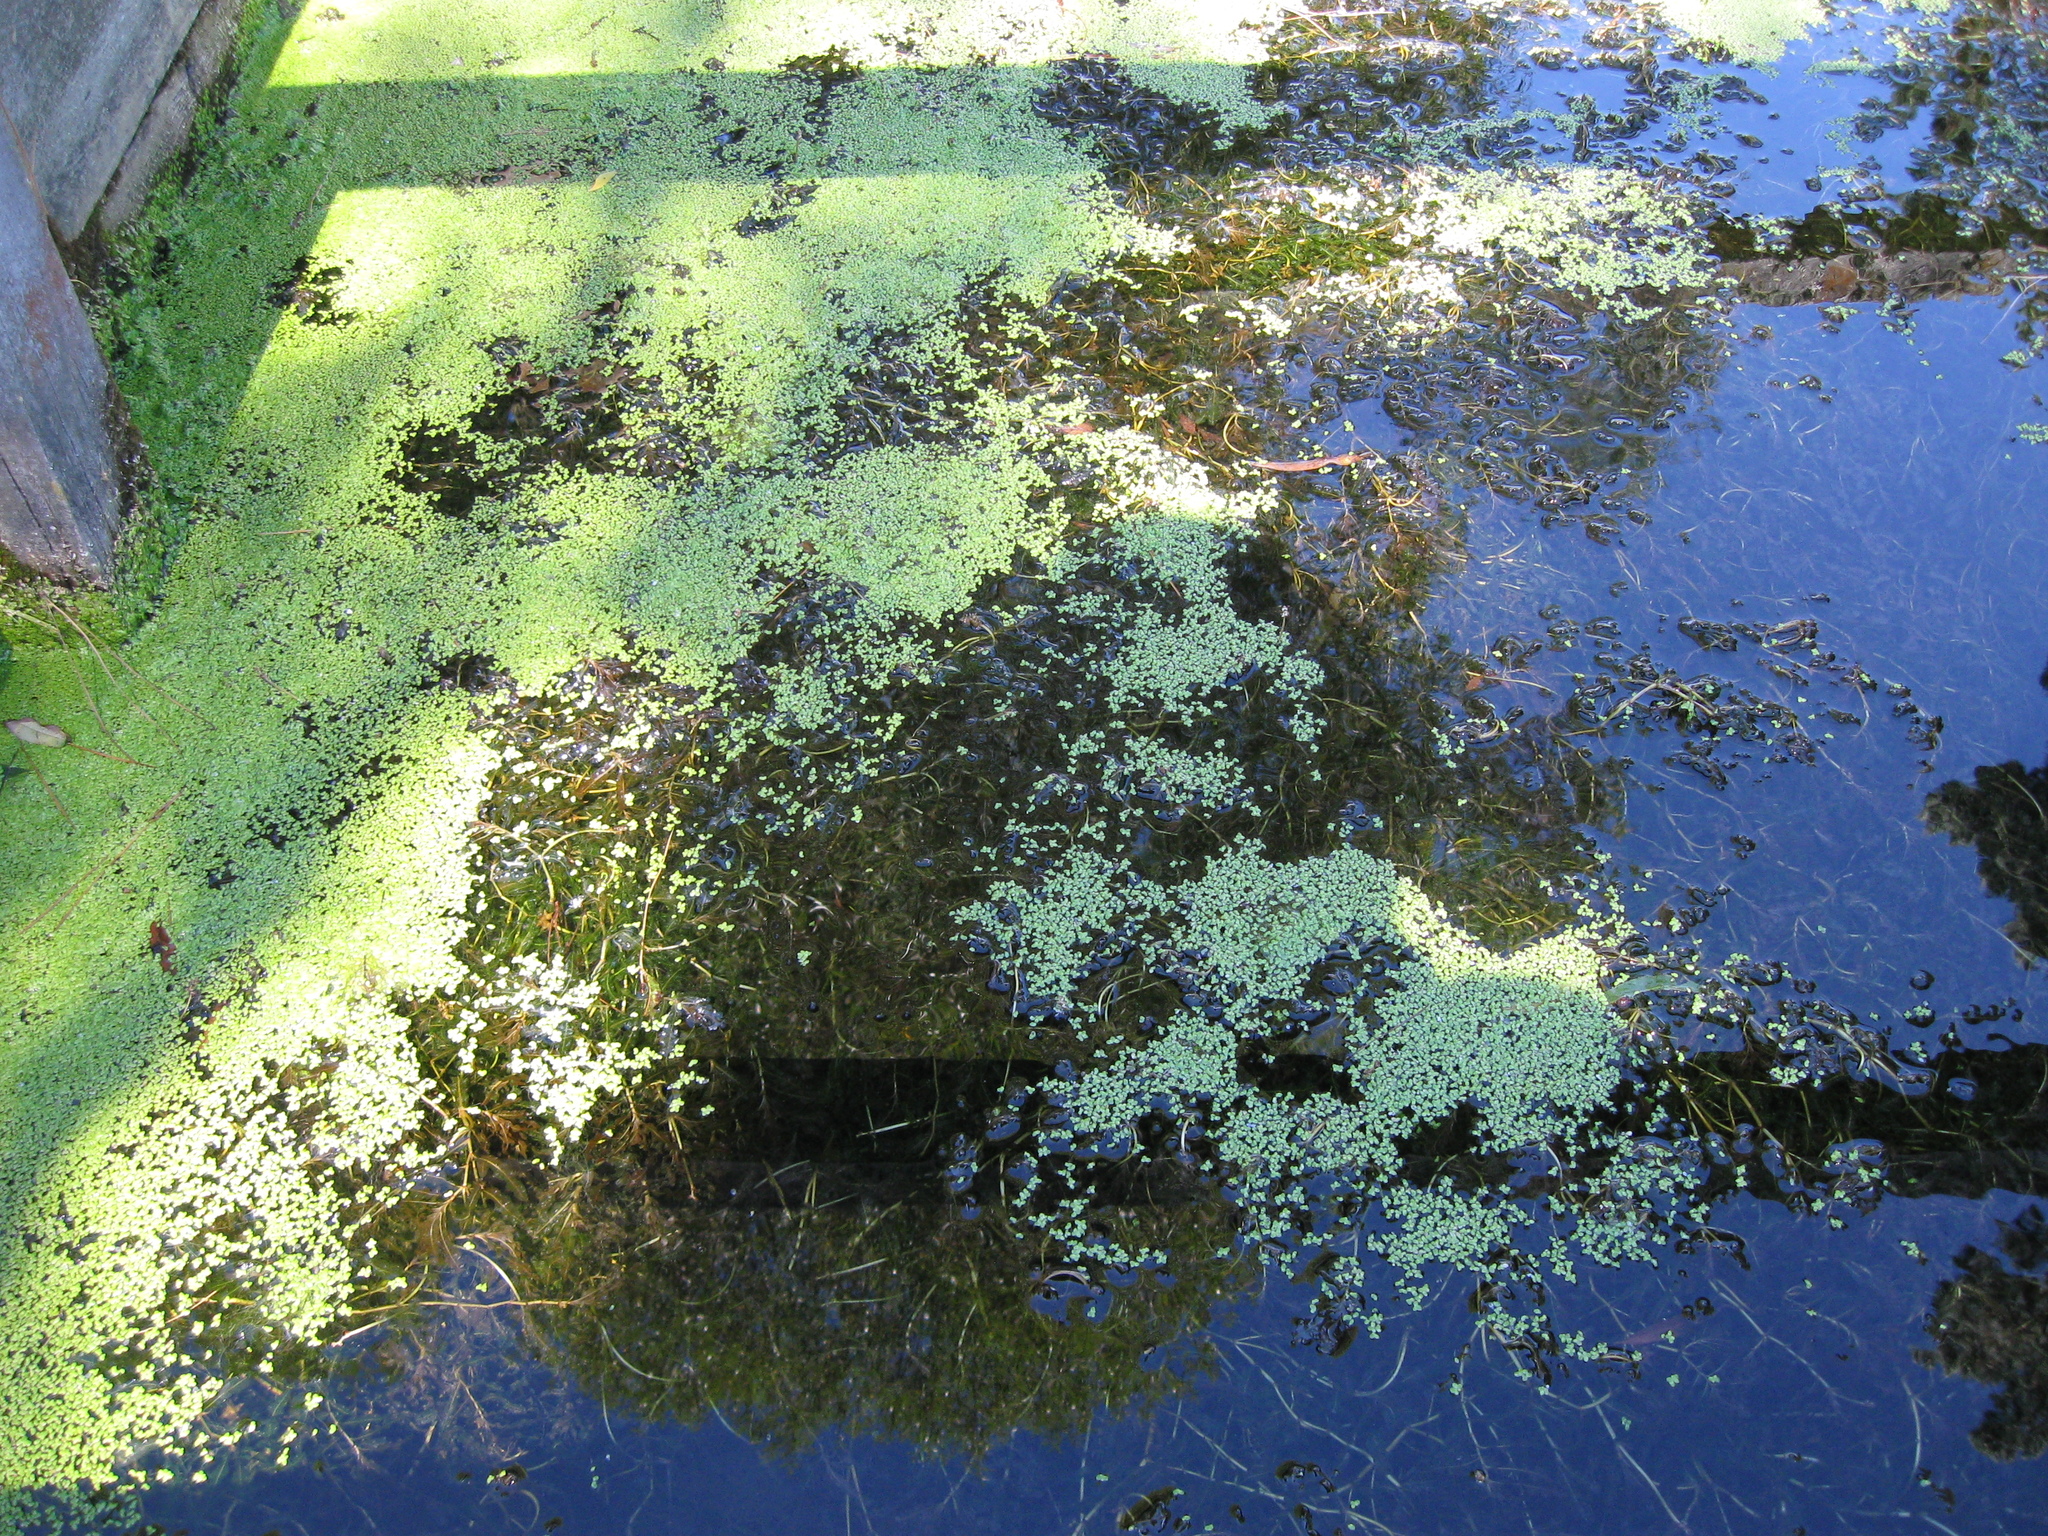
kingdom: Plantae
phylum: Tracheophyta
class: Liliopsida
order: Alismatales
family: Araceae
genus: Lemna
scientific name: Lemna disperma
